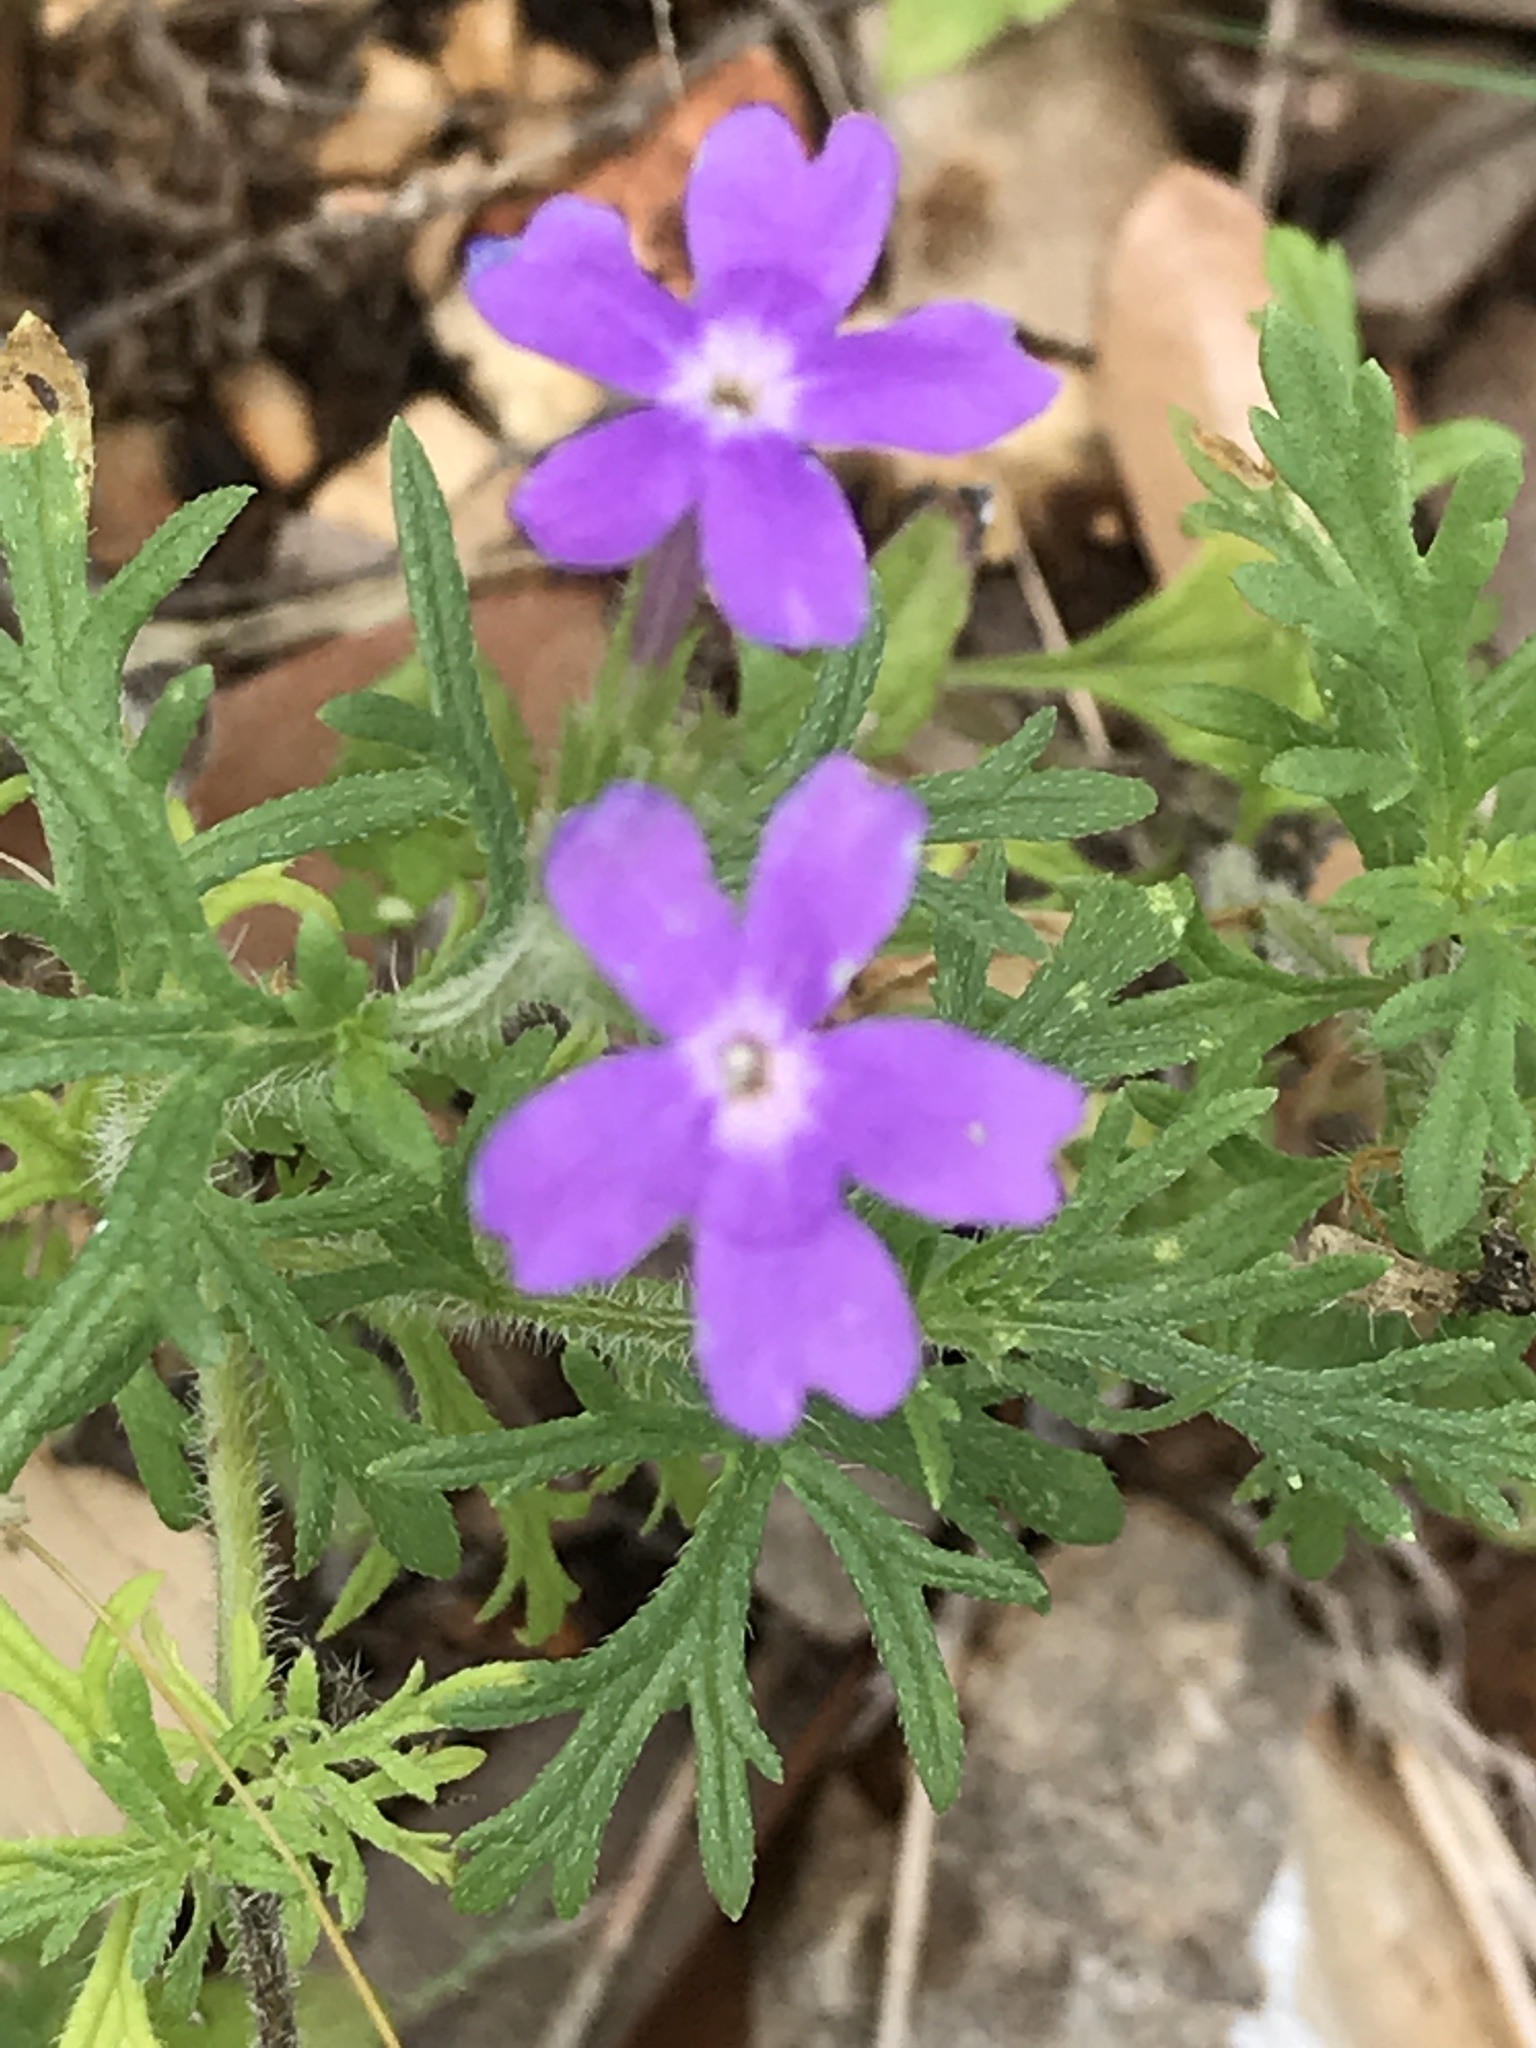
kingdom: Plantae
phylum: Tracheophyta
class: Magnoliopsida
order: Lamiales
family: Verbenaceae
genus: Verbena
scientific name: Verbena bipinnatifida
